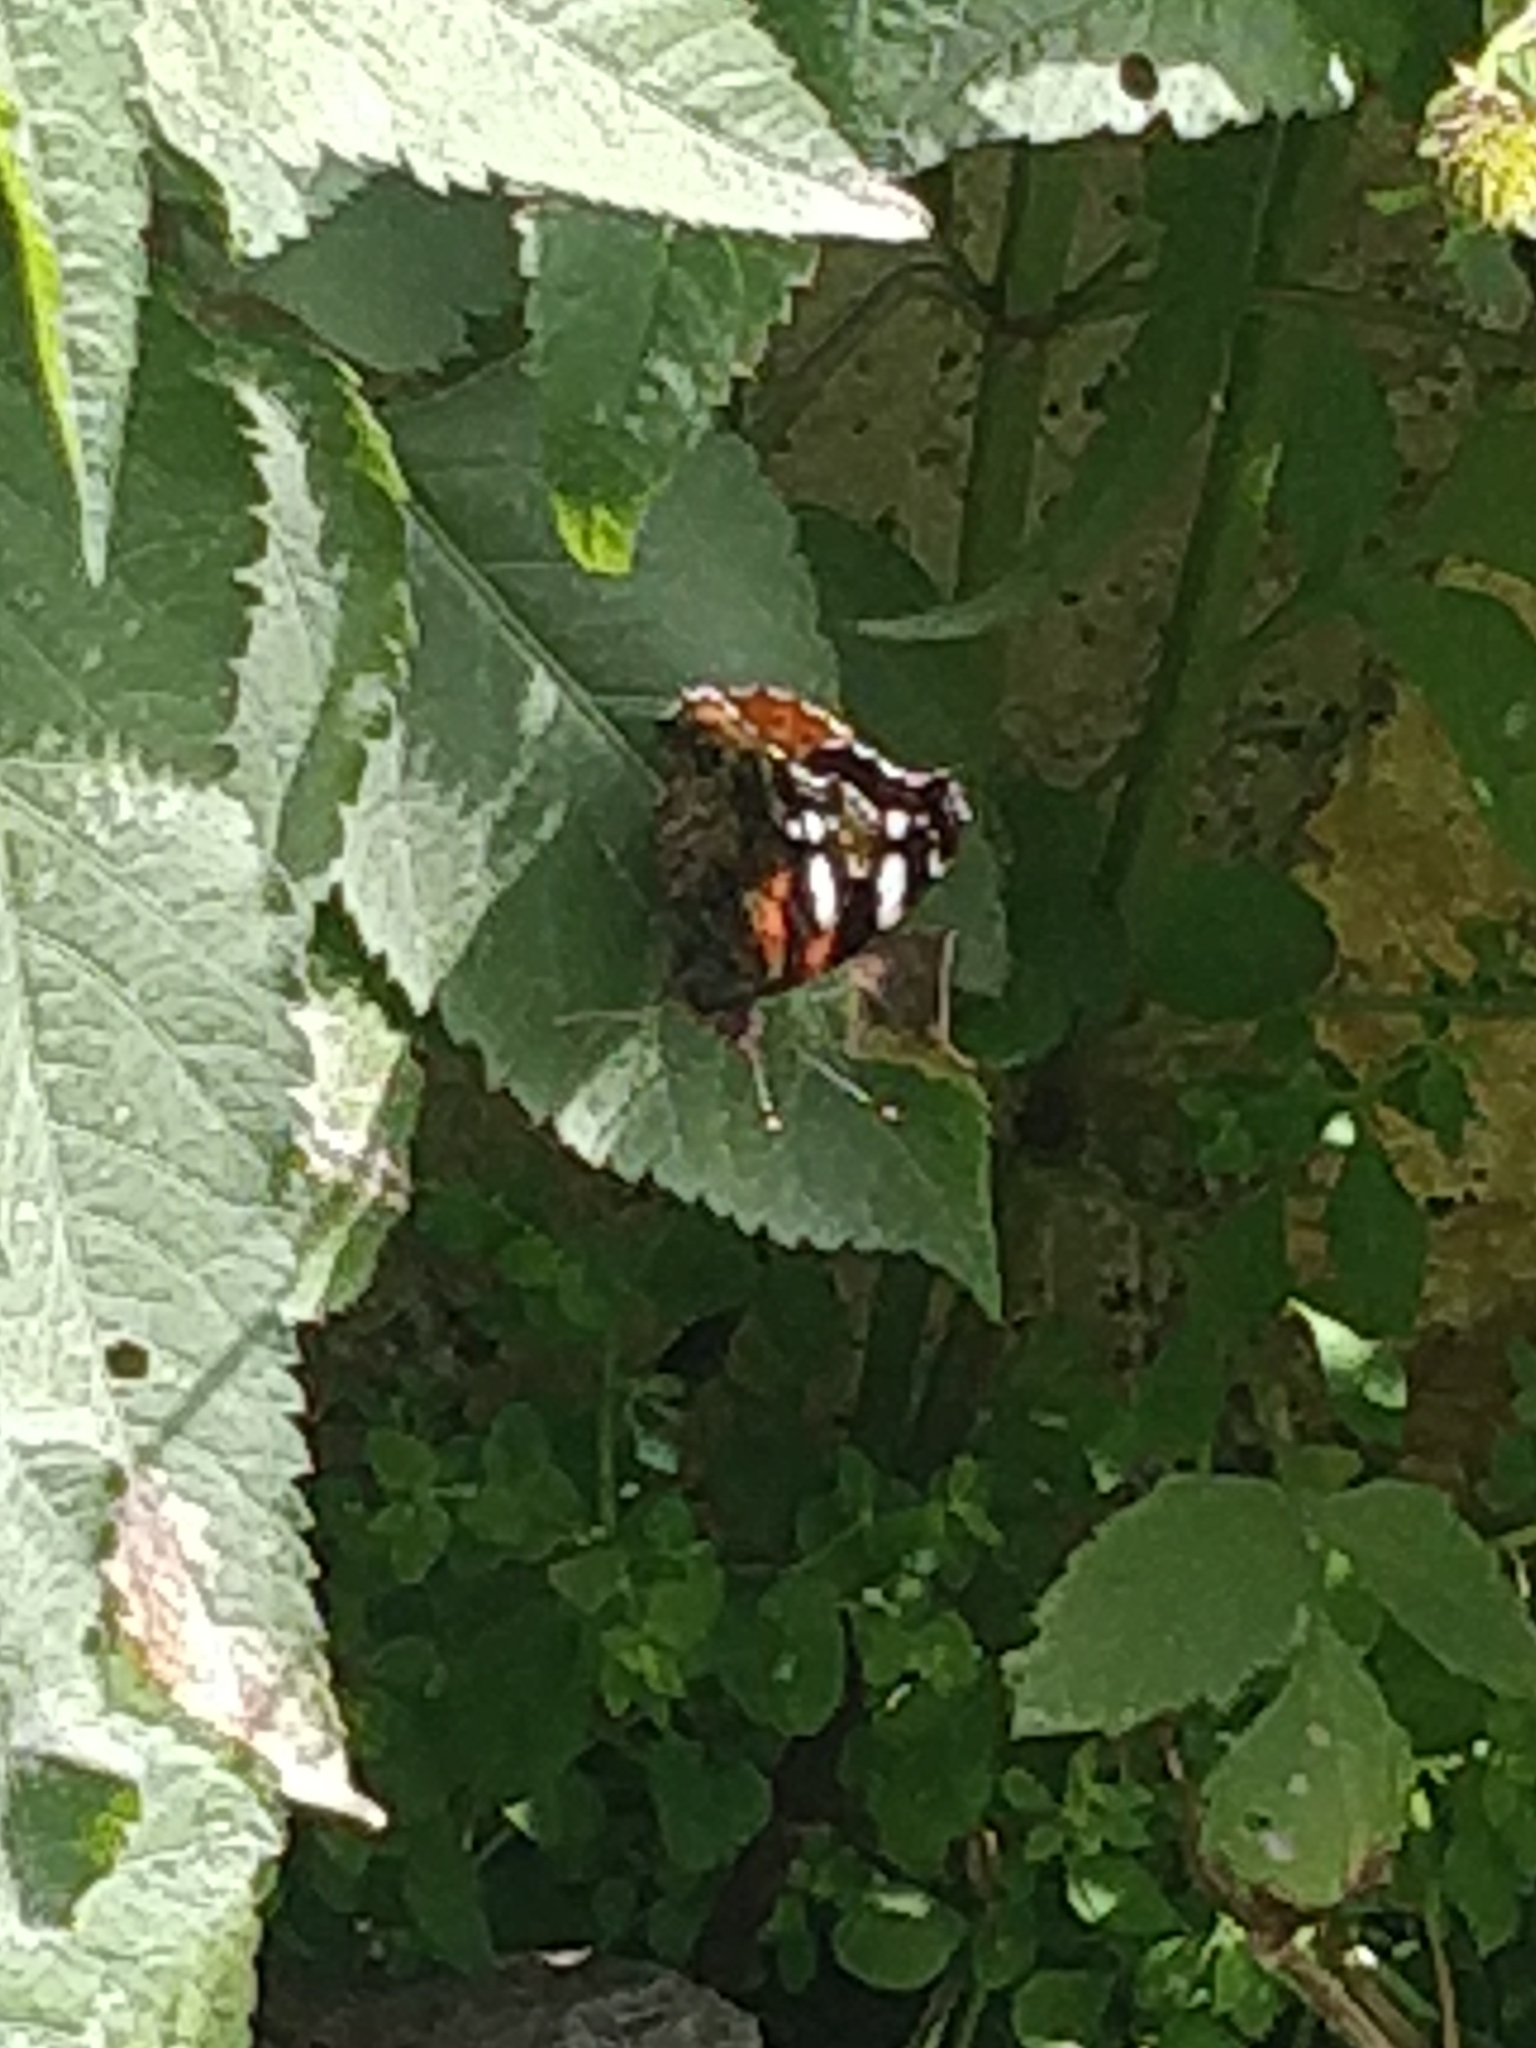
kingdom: Animalia
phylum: Arthropoda
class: Insecta
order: Lepidoptera
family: Nymphalidae
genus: Vanessa
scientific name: Vanessa atalanta
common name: Red admiral
